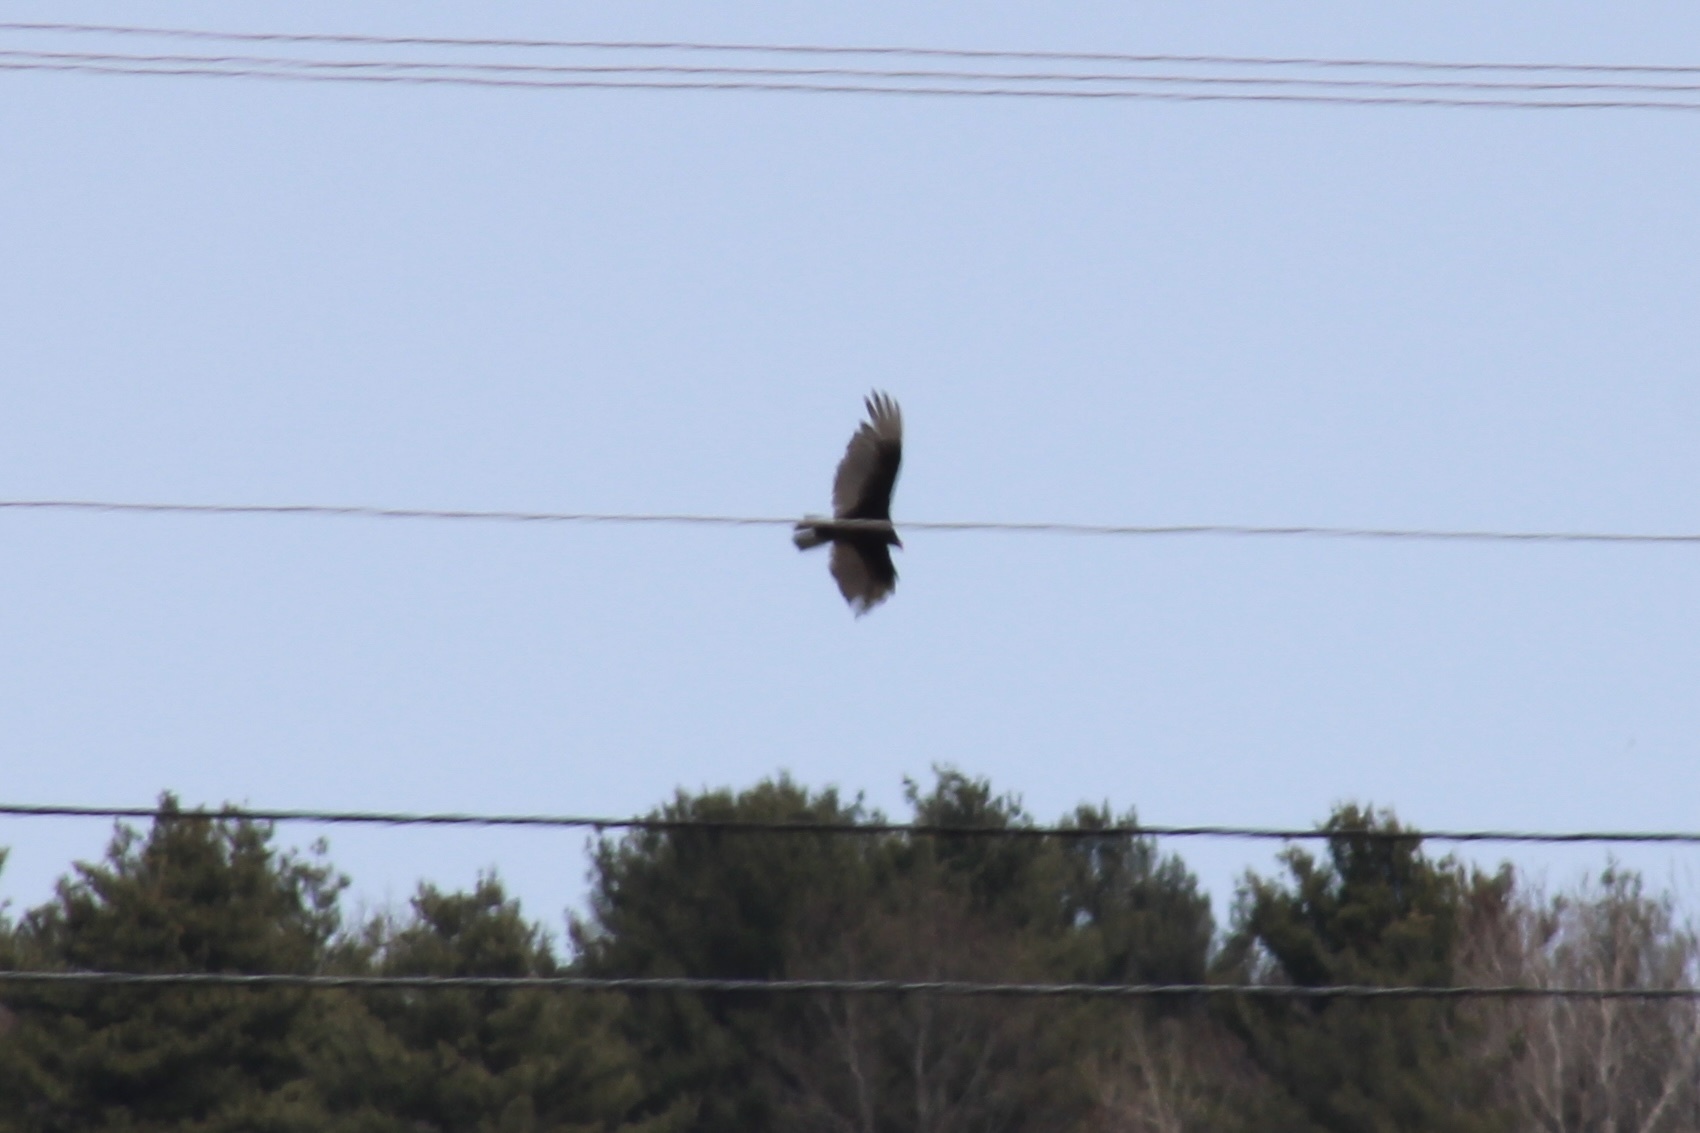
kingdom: Animalia
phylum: Chordata
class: Aves
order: Accipitriformes
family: Cathartidae
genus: Cathartes
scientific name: Cathartes aura
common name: Turkey vulture
